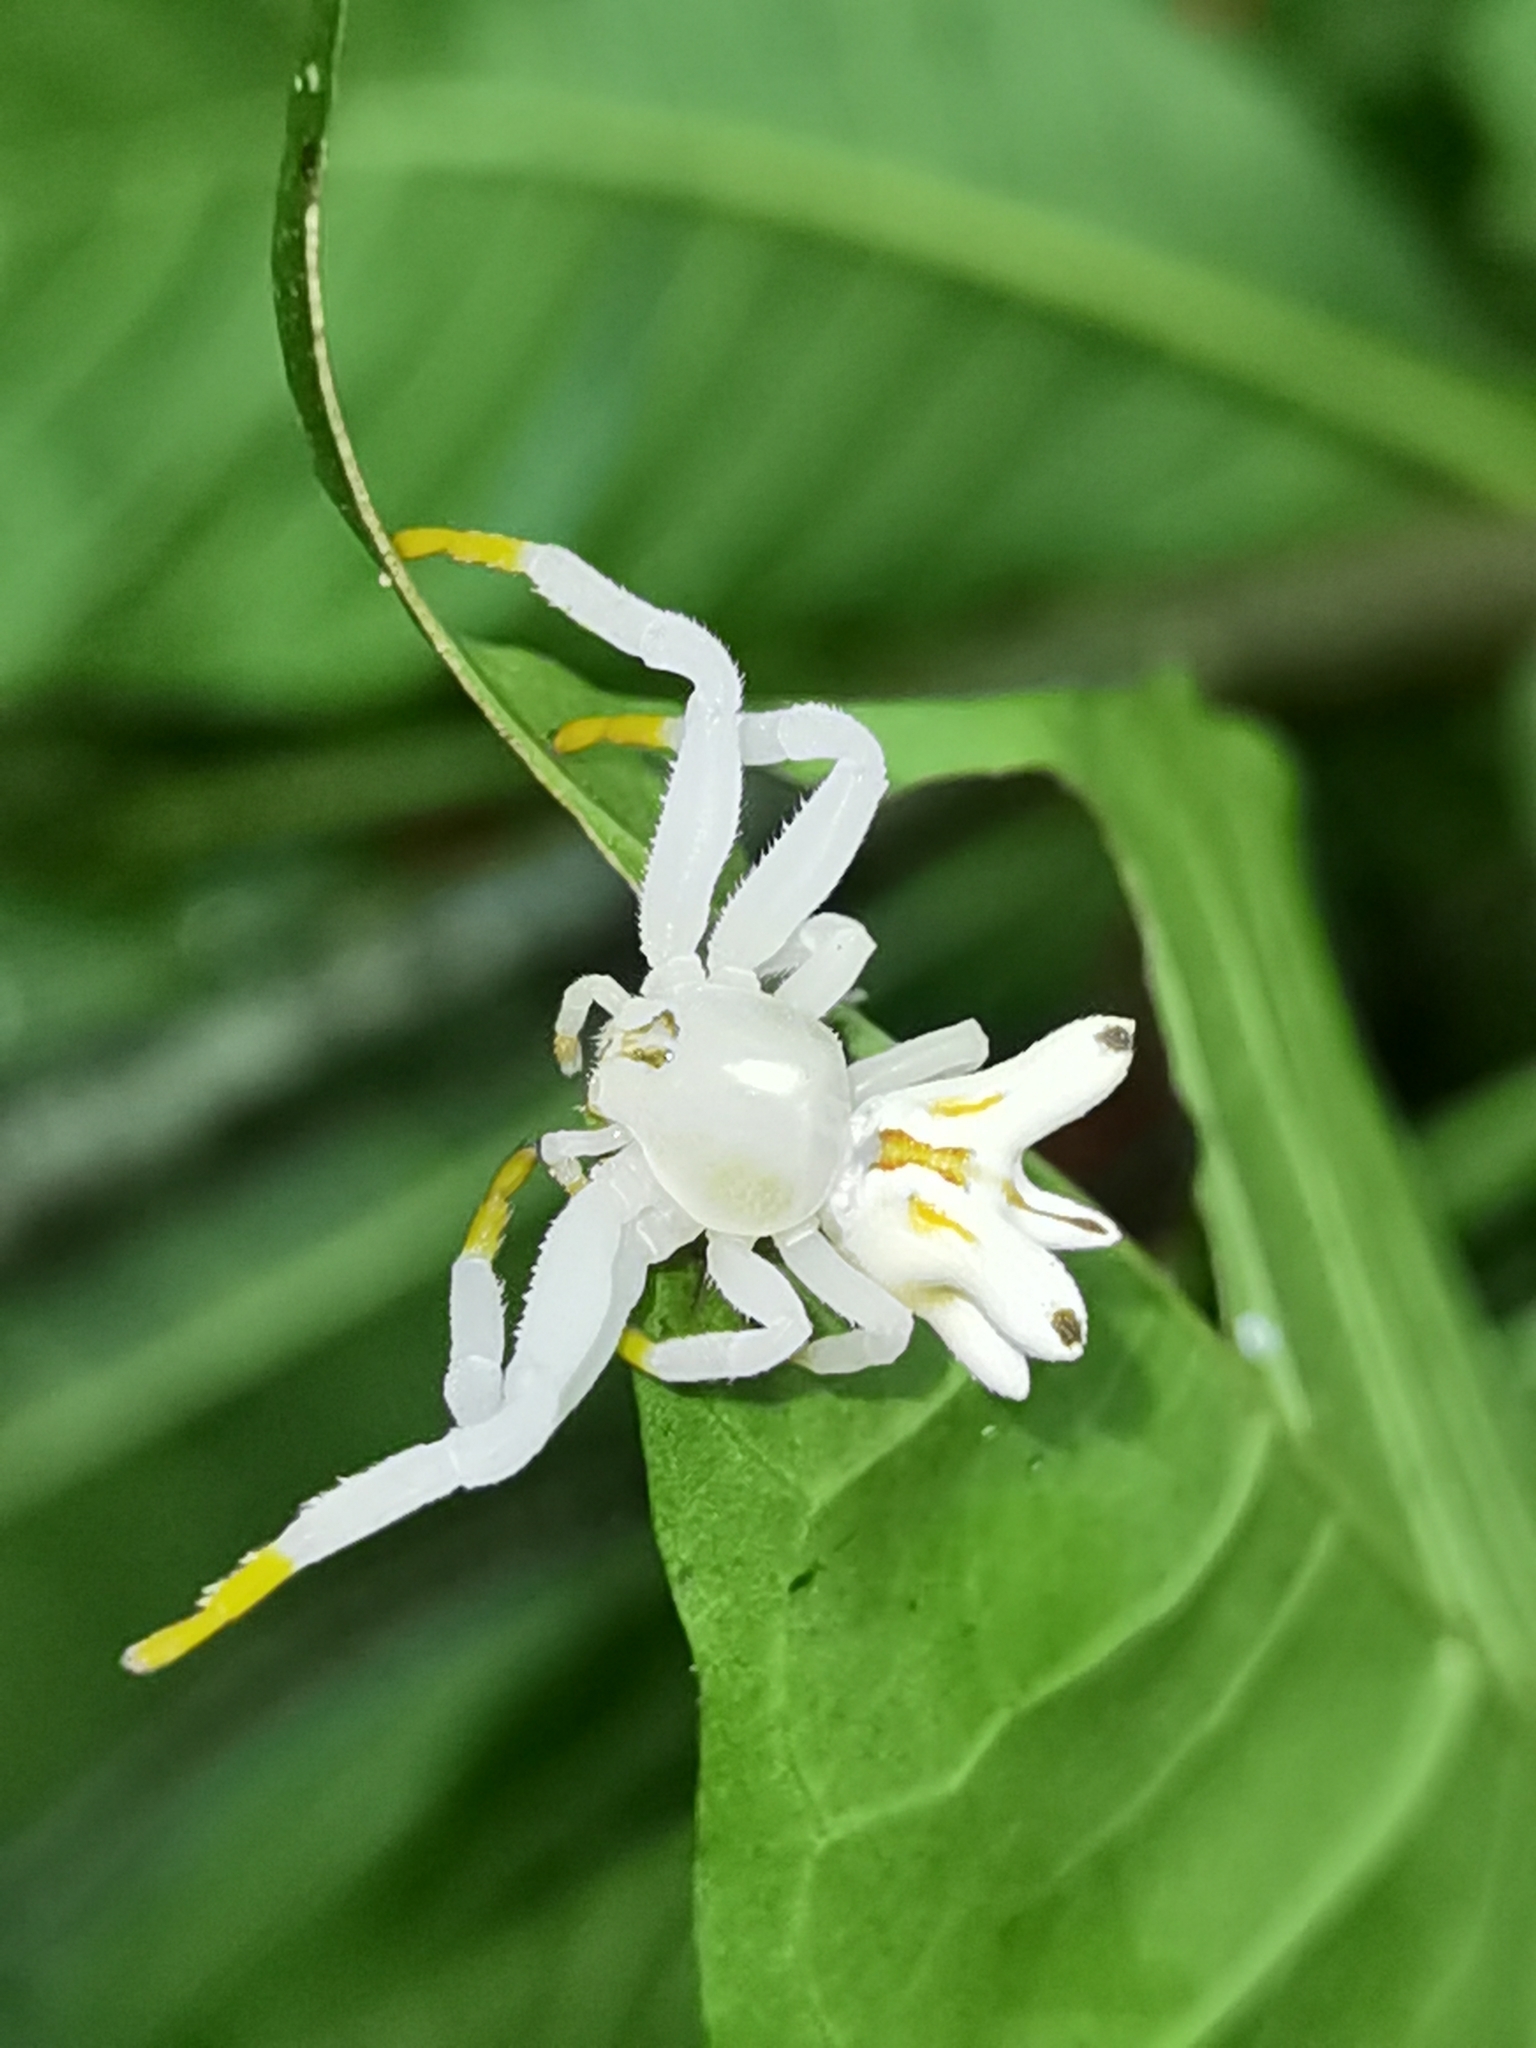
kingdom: Animalia
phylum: Arthropoda
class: Arachnida
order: Araneae
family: Thomisidae
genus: Epicadus
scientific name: Epicadus heterogaster
